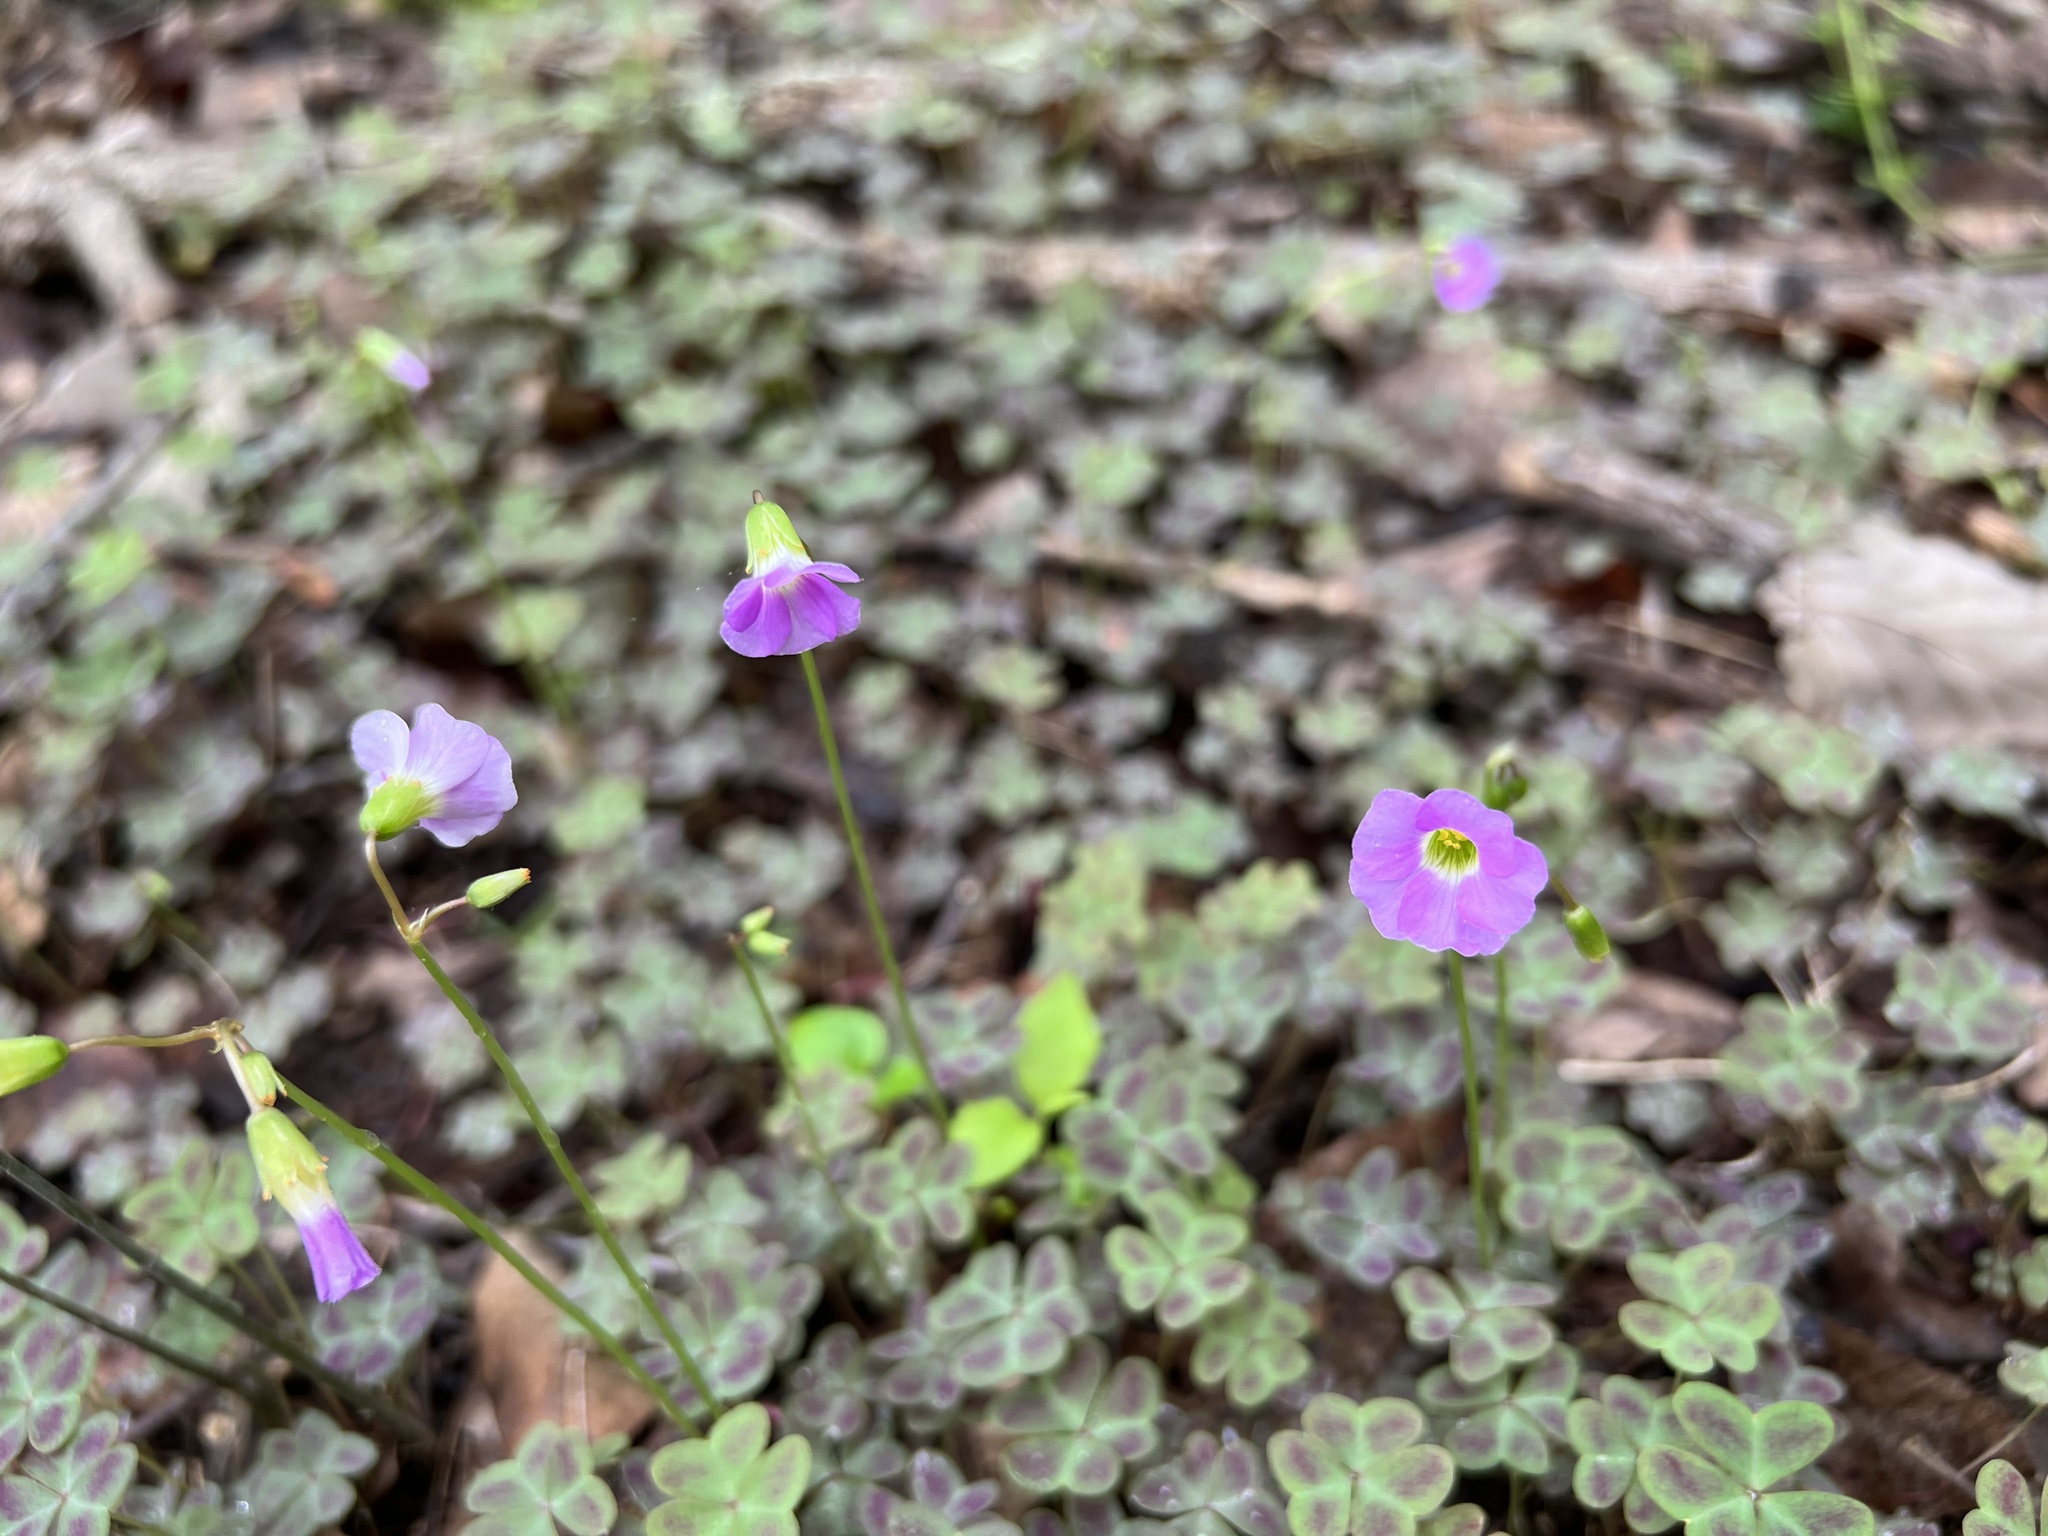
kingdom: Plantae
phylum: Tracheophyta
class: Magnoliopsida
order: Oxalidales
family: Oxalidaceae
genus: Oxalis
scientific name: Oxalis violacea
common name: Violet wood-sorrel
